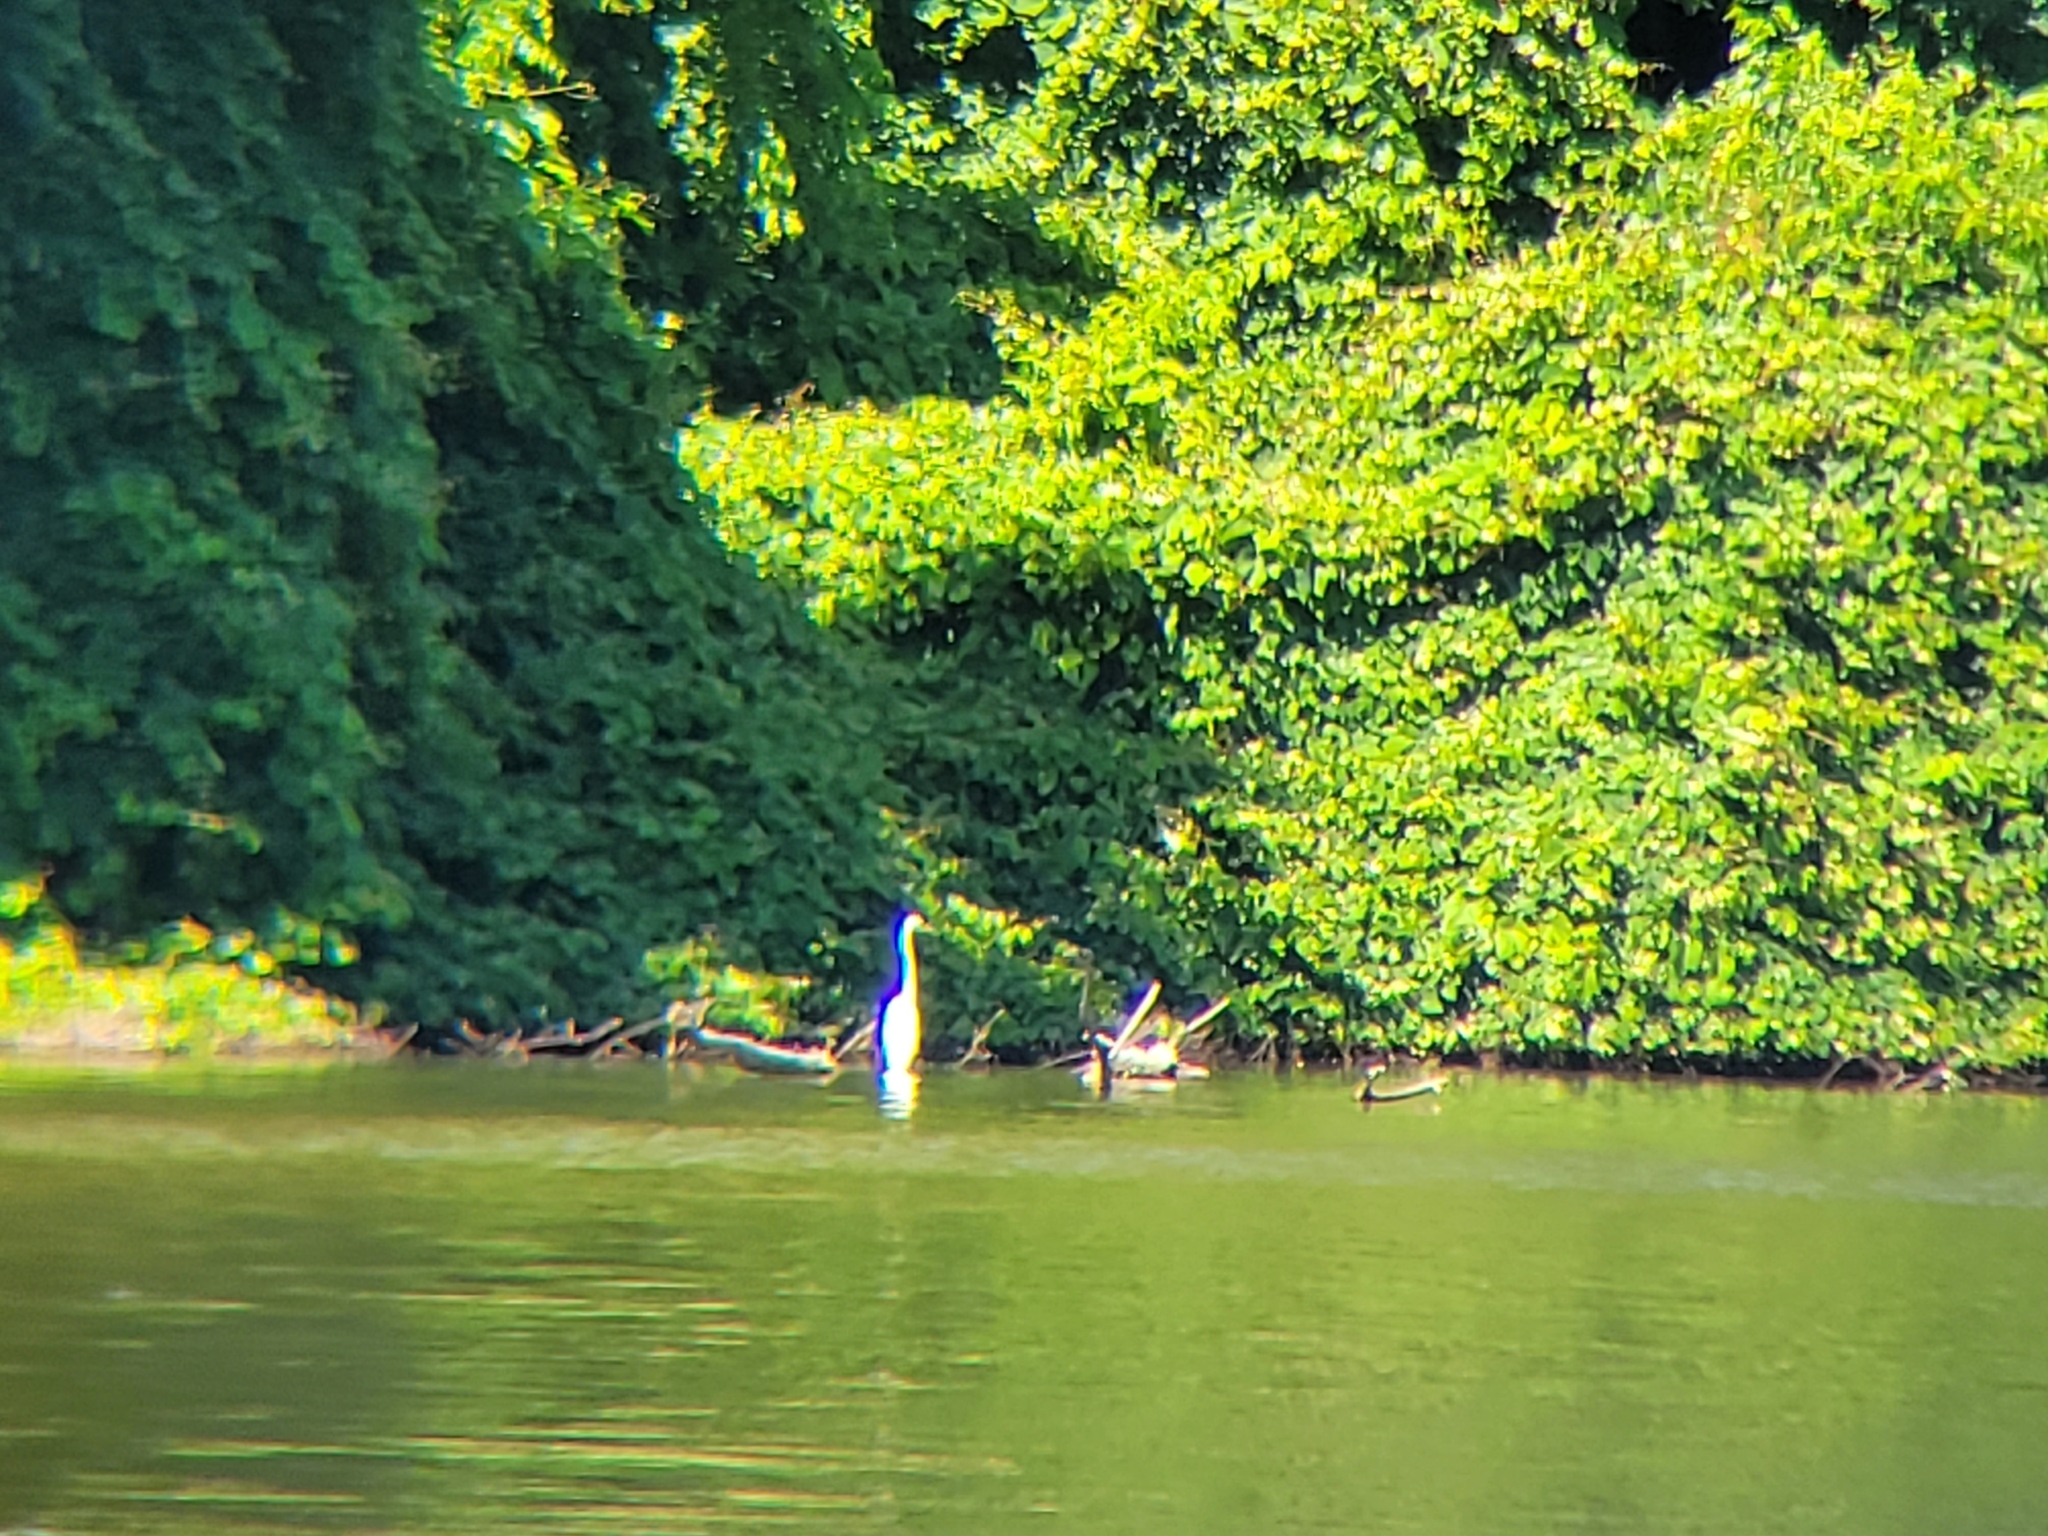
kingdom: Animalia
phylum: Chordata
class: Aves
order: Pelecaniformes
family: Ardeidae
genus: Ardea
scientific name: Ardea alba
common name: Great egret
